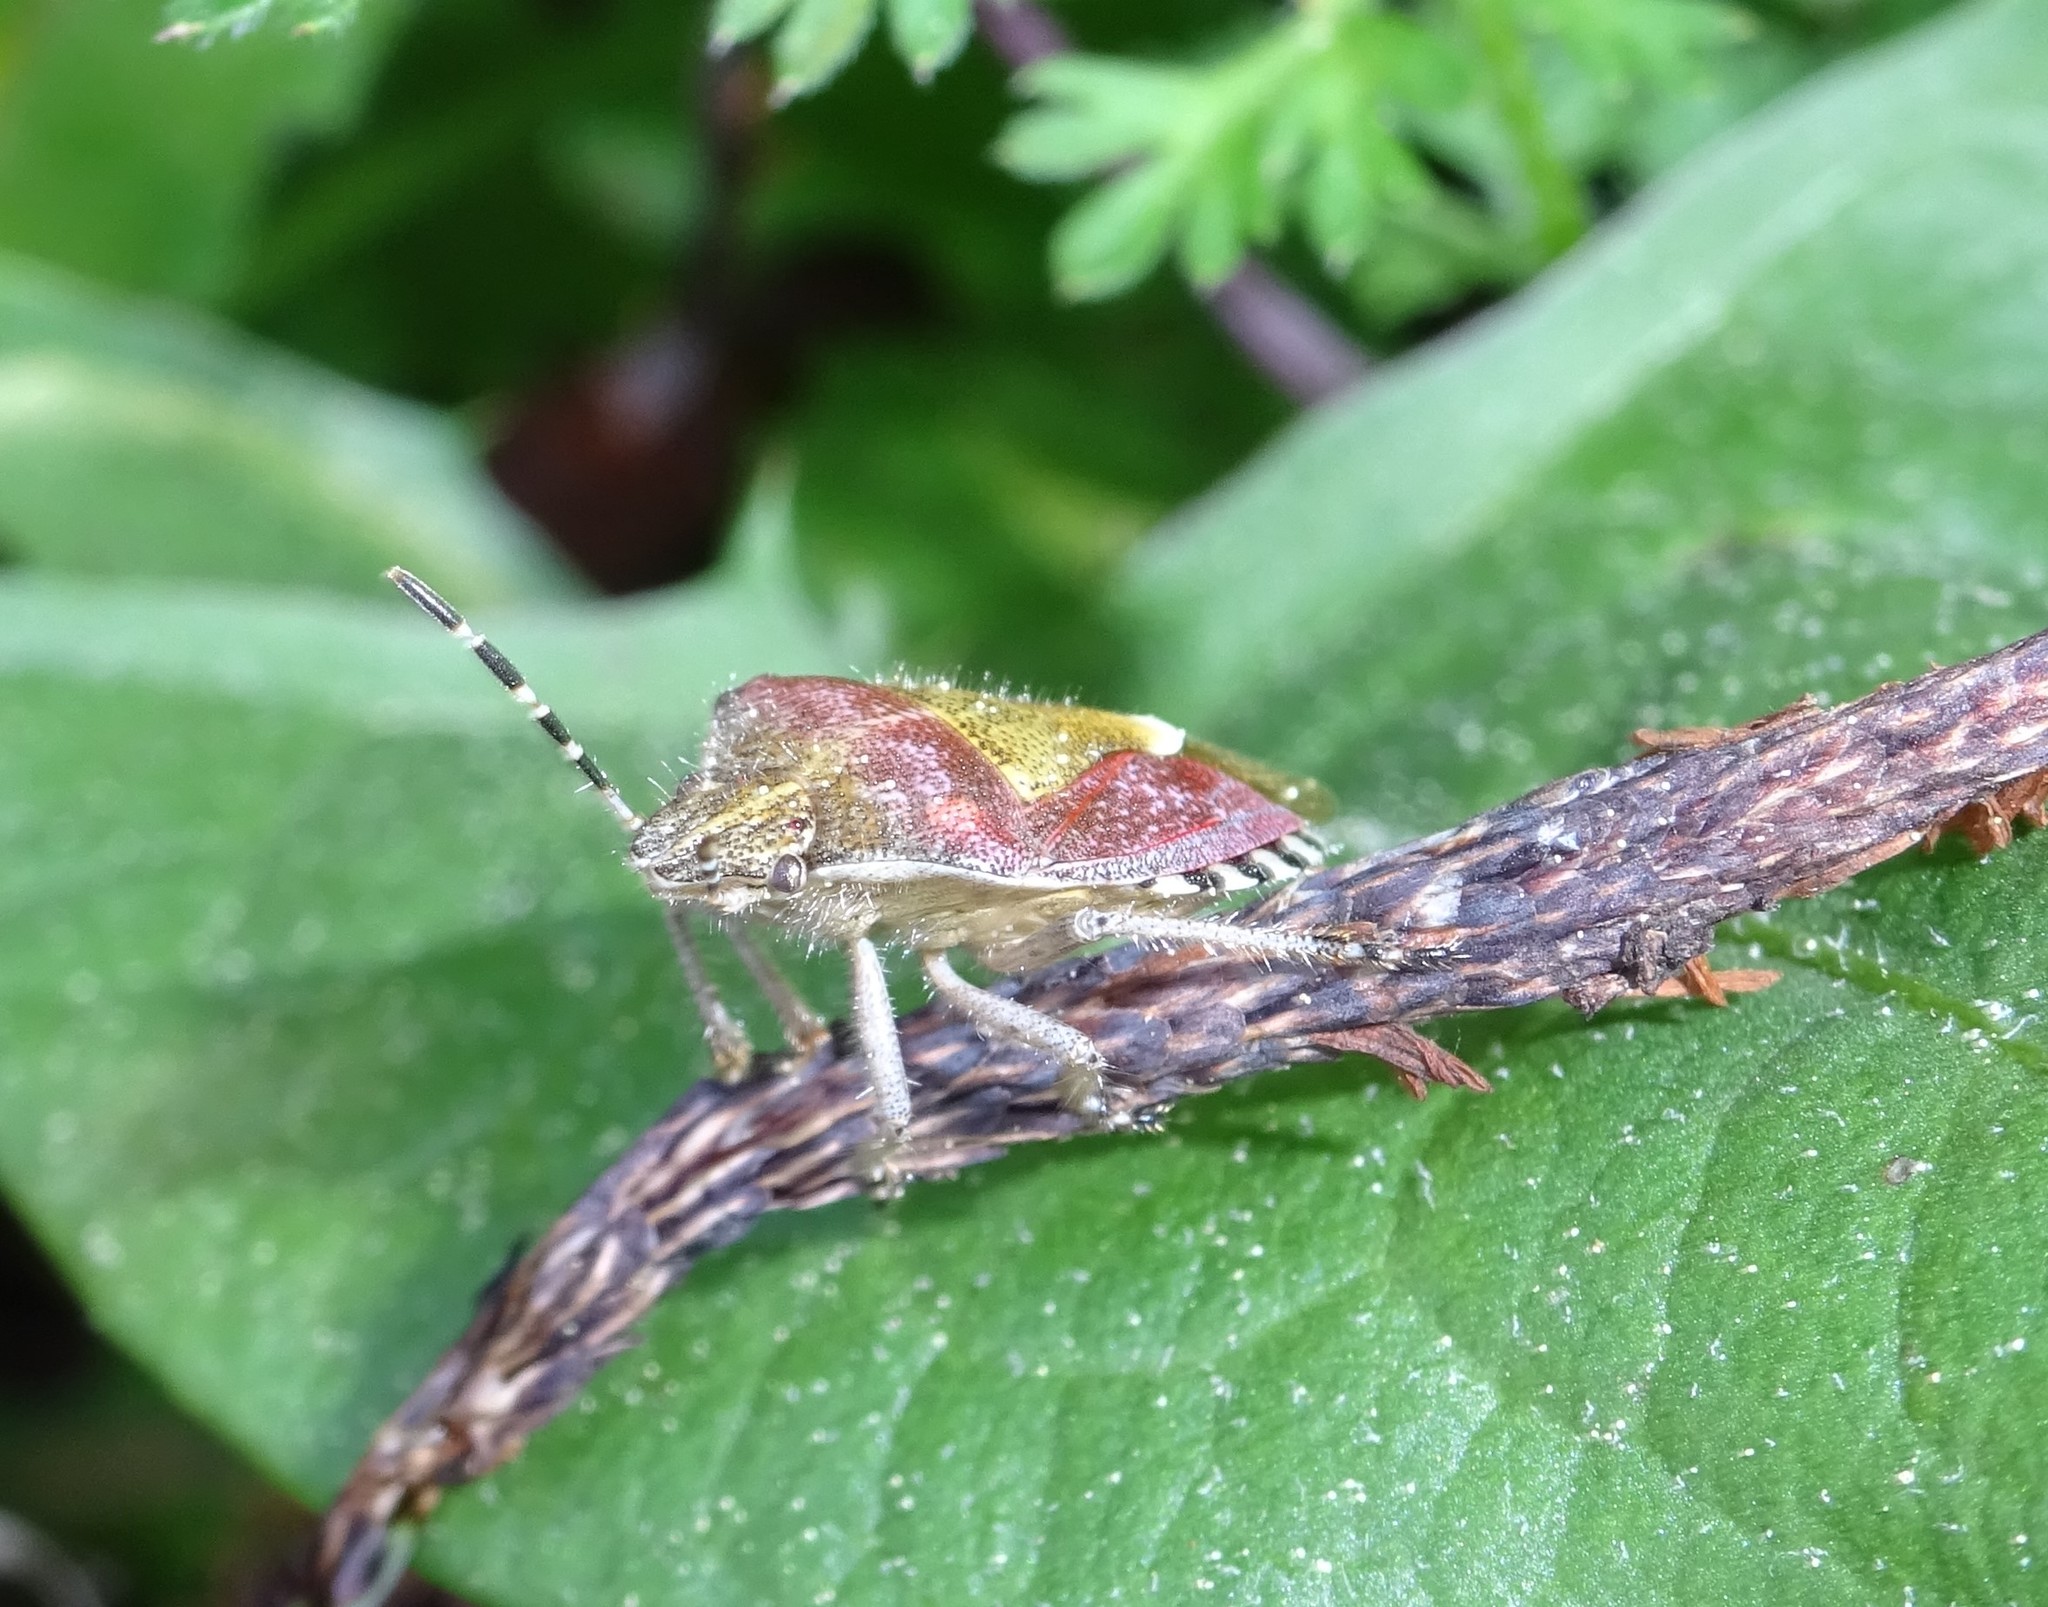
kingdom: Animalia
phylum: Arthropoda
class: Insecta
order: Hemiptera
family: Pentatomidae
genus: Dolycoris
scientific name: Dolycoris baccarum
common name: Sloe bug
